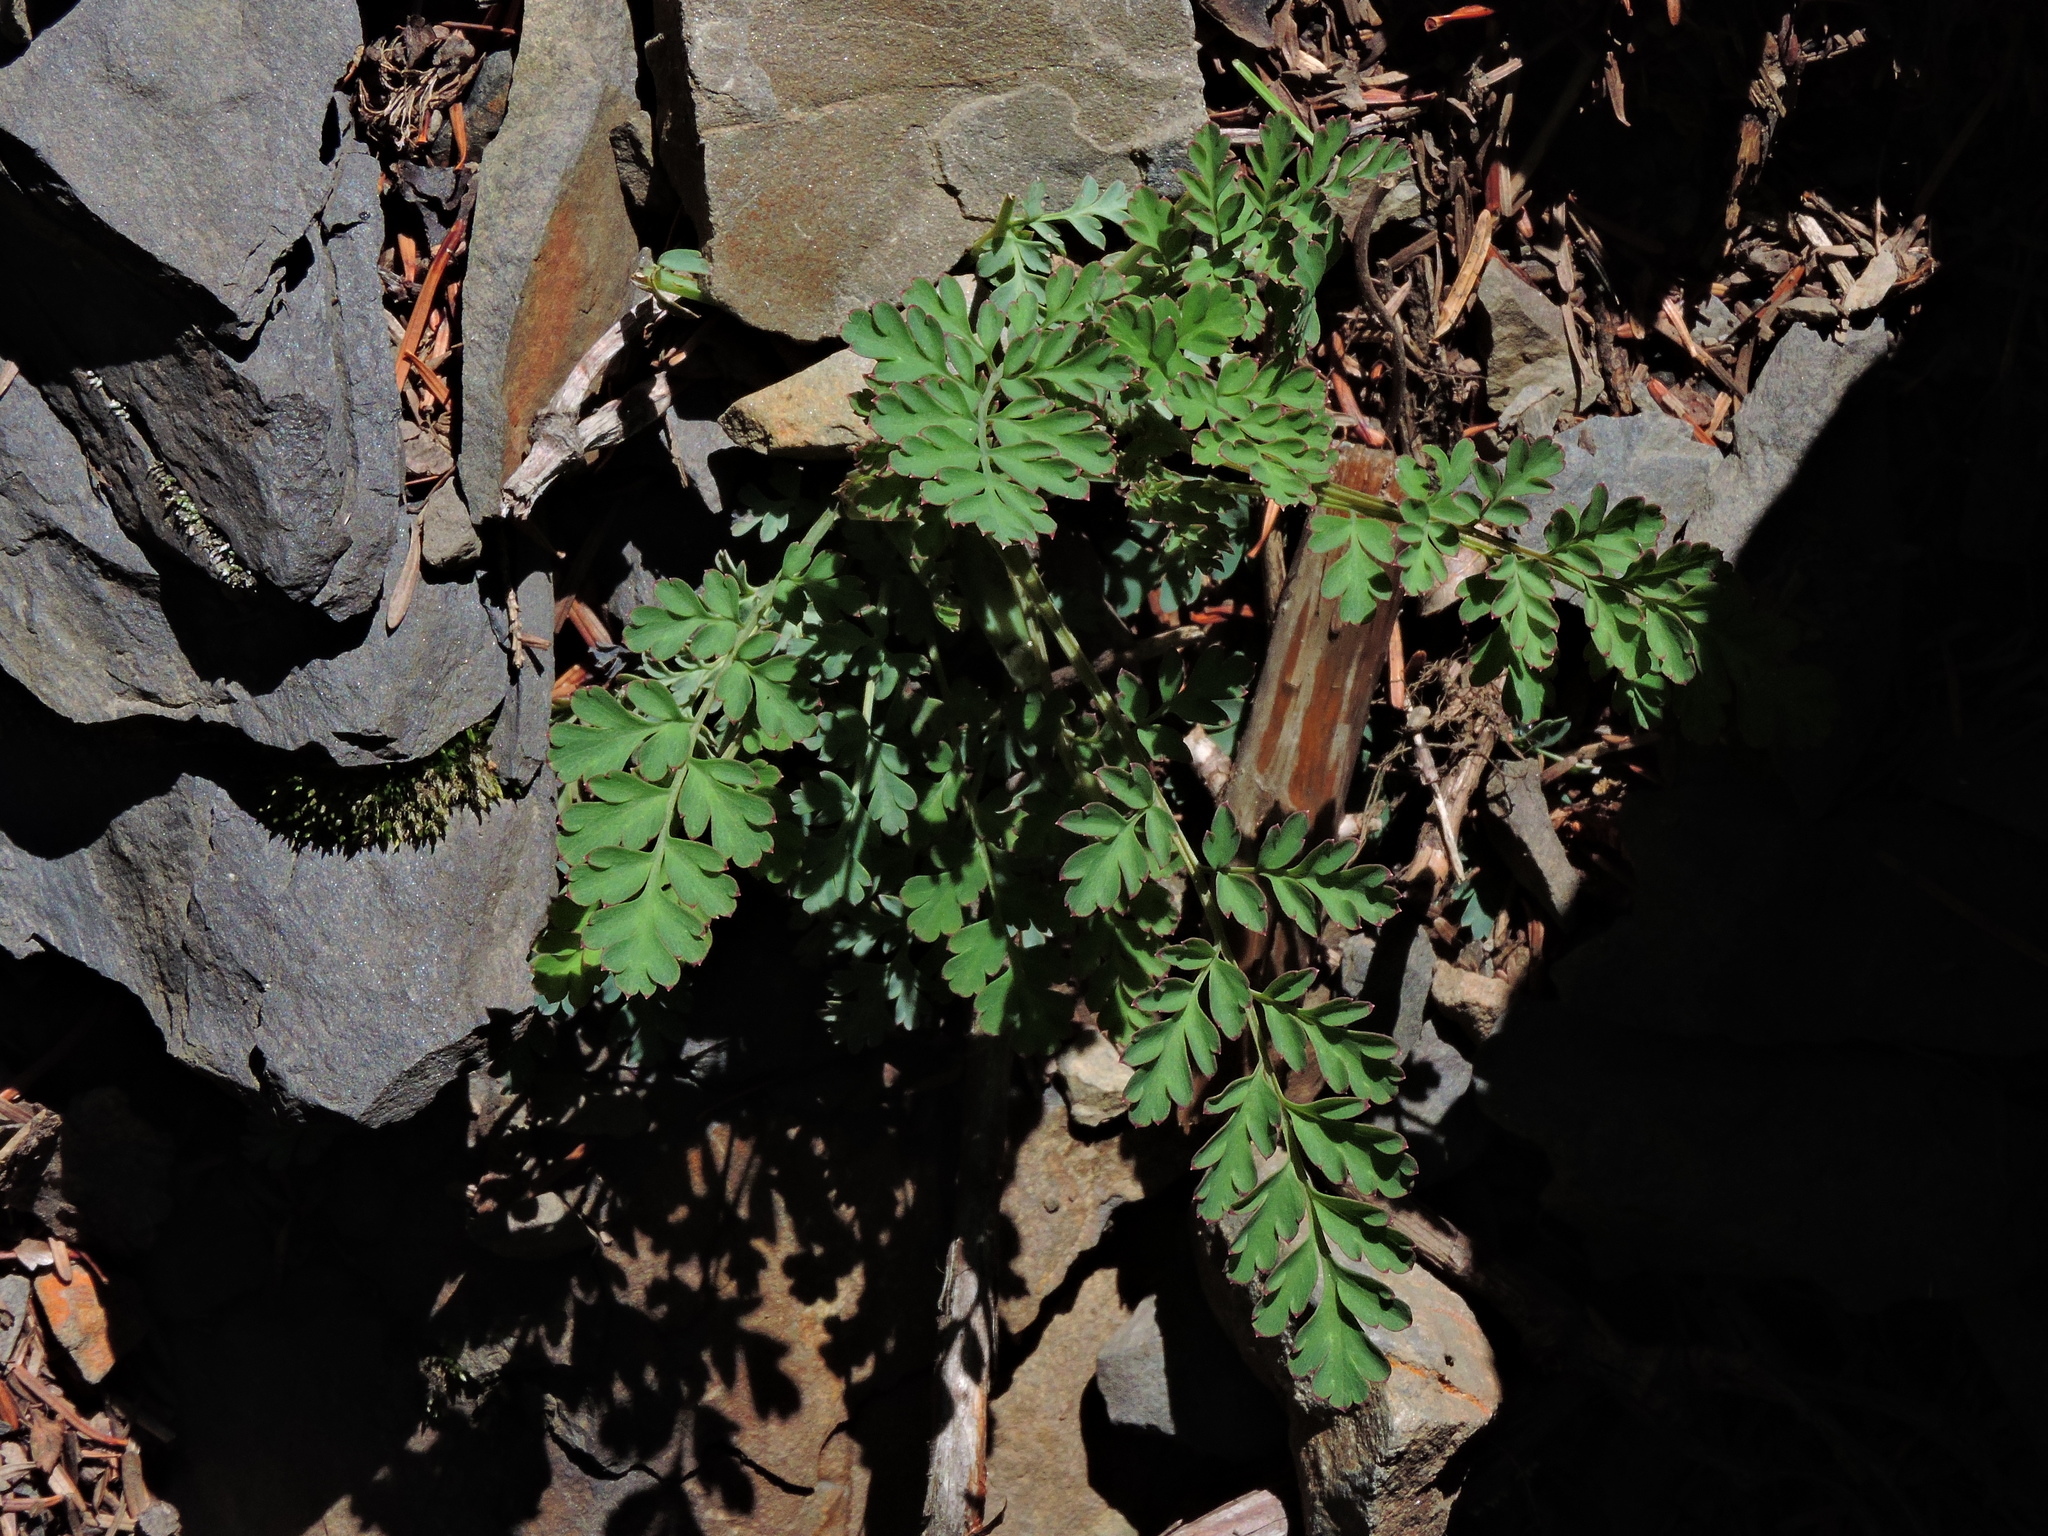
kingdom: Plantae
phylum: Tracheophyta
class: Magnoliopsida
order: Ranunculales
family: Papaveraceae
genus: Corydalis
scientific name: Corydalis ophiocarpa
